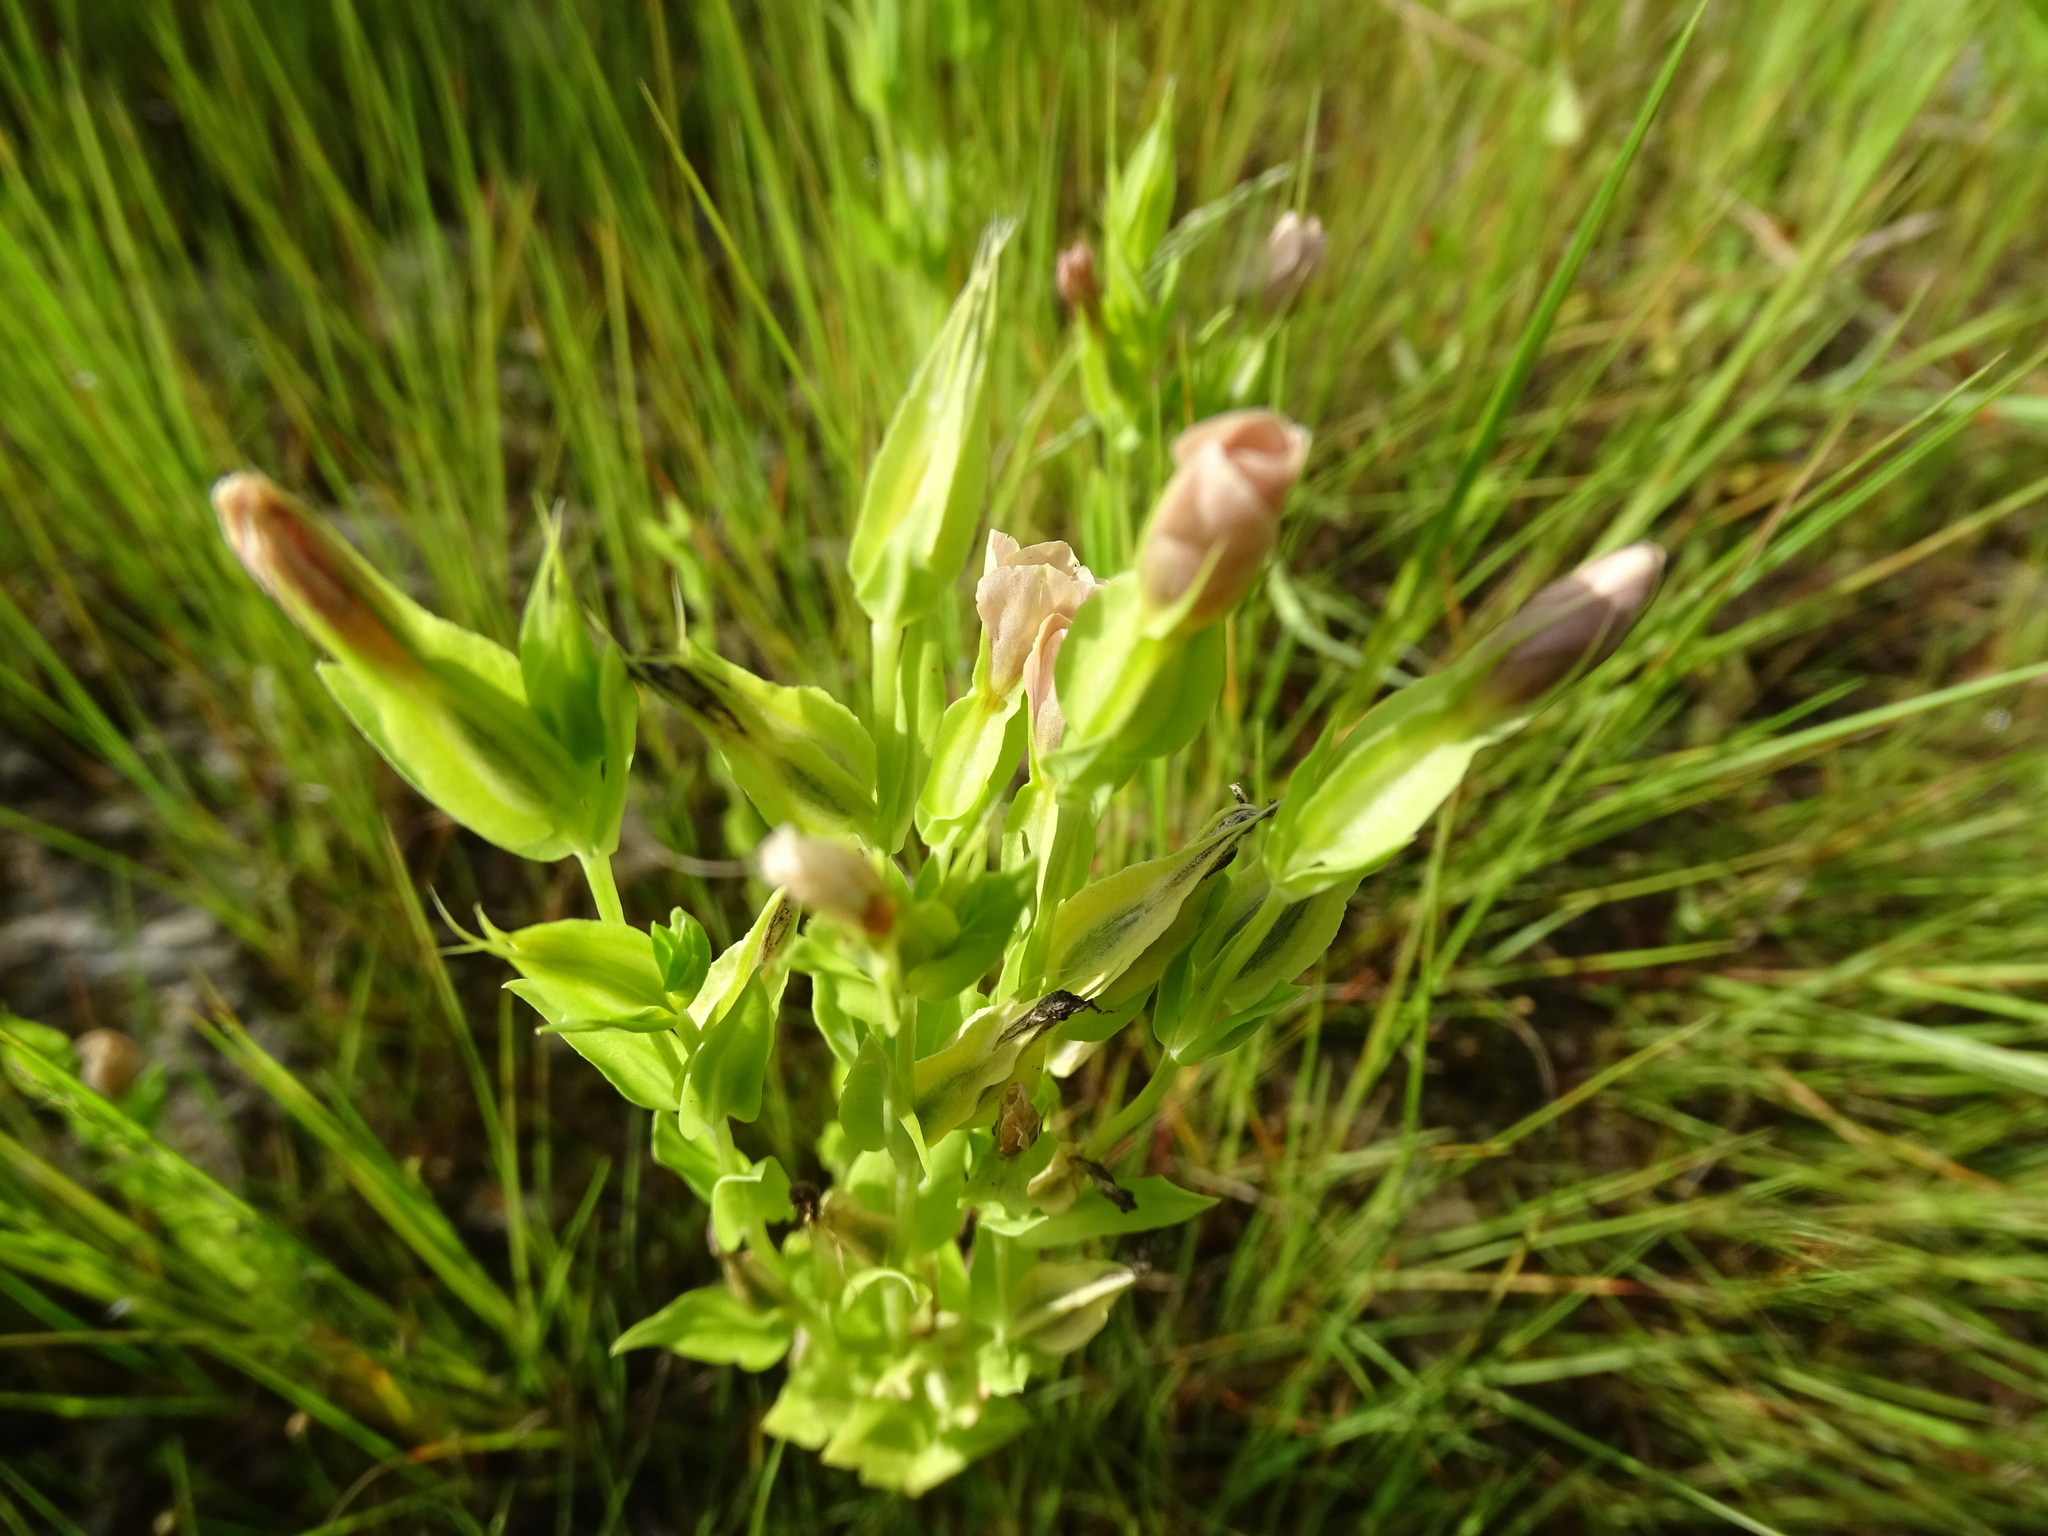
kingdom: Plantae
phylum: Tracheophyta
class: Magnoliopsida
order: Gentianales
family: Gentianaceae
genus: Schultesia
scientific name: Schultesia brachyptera
